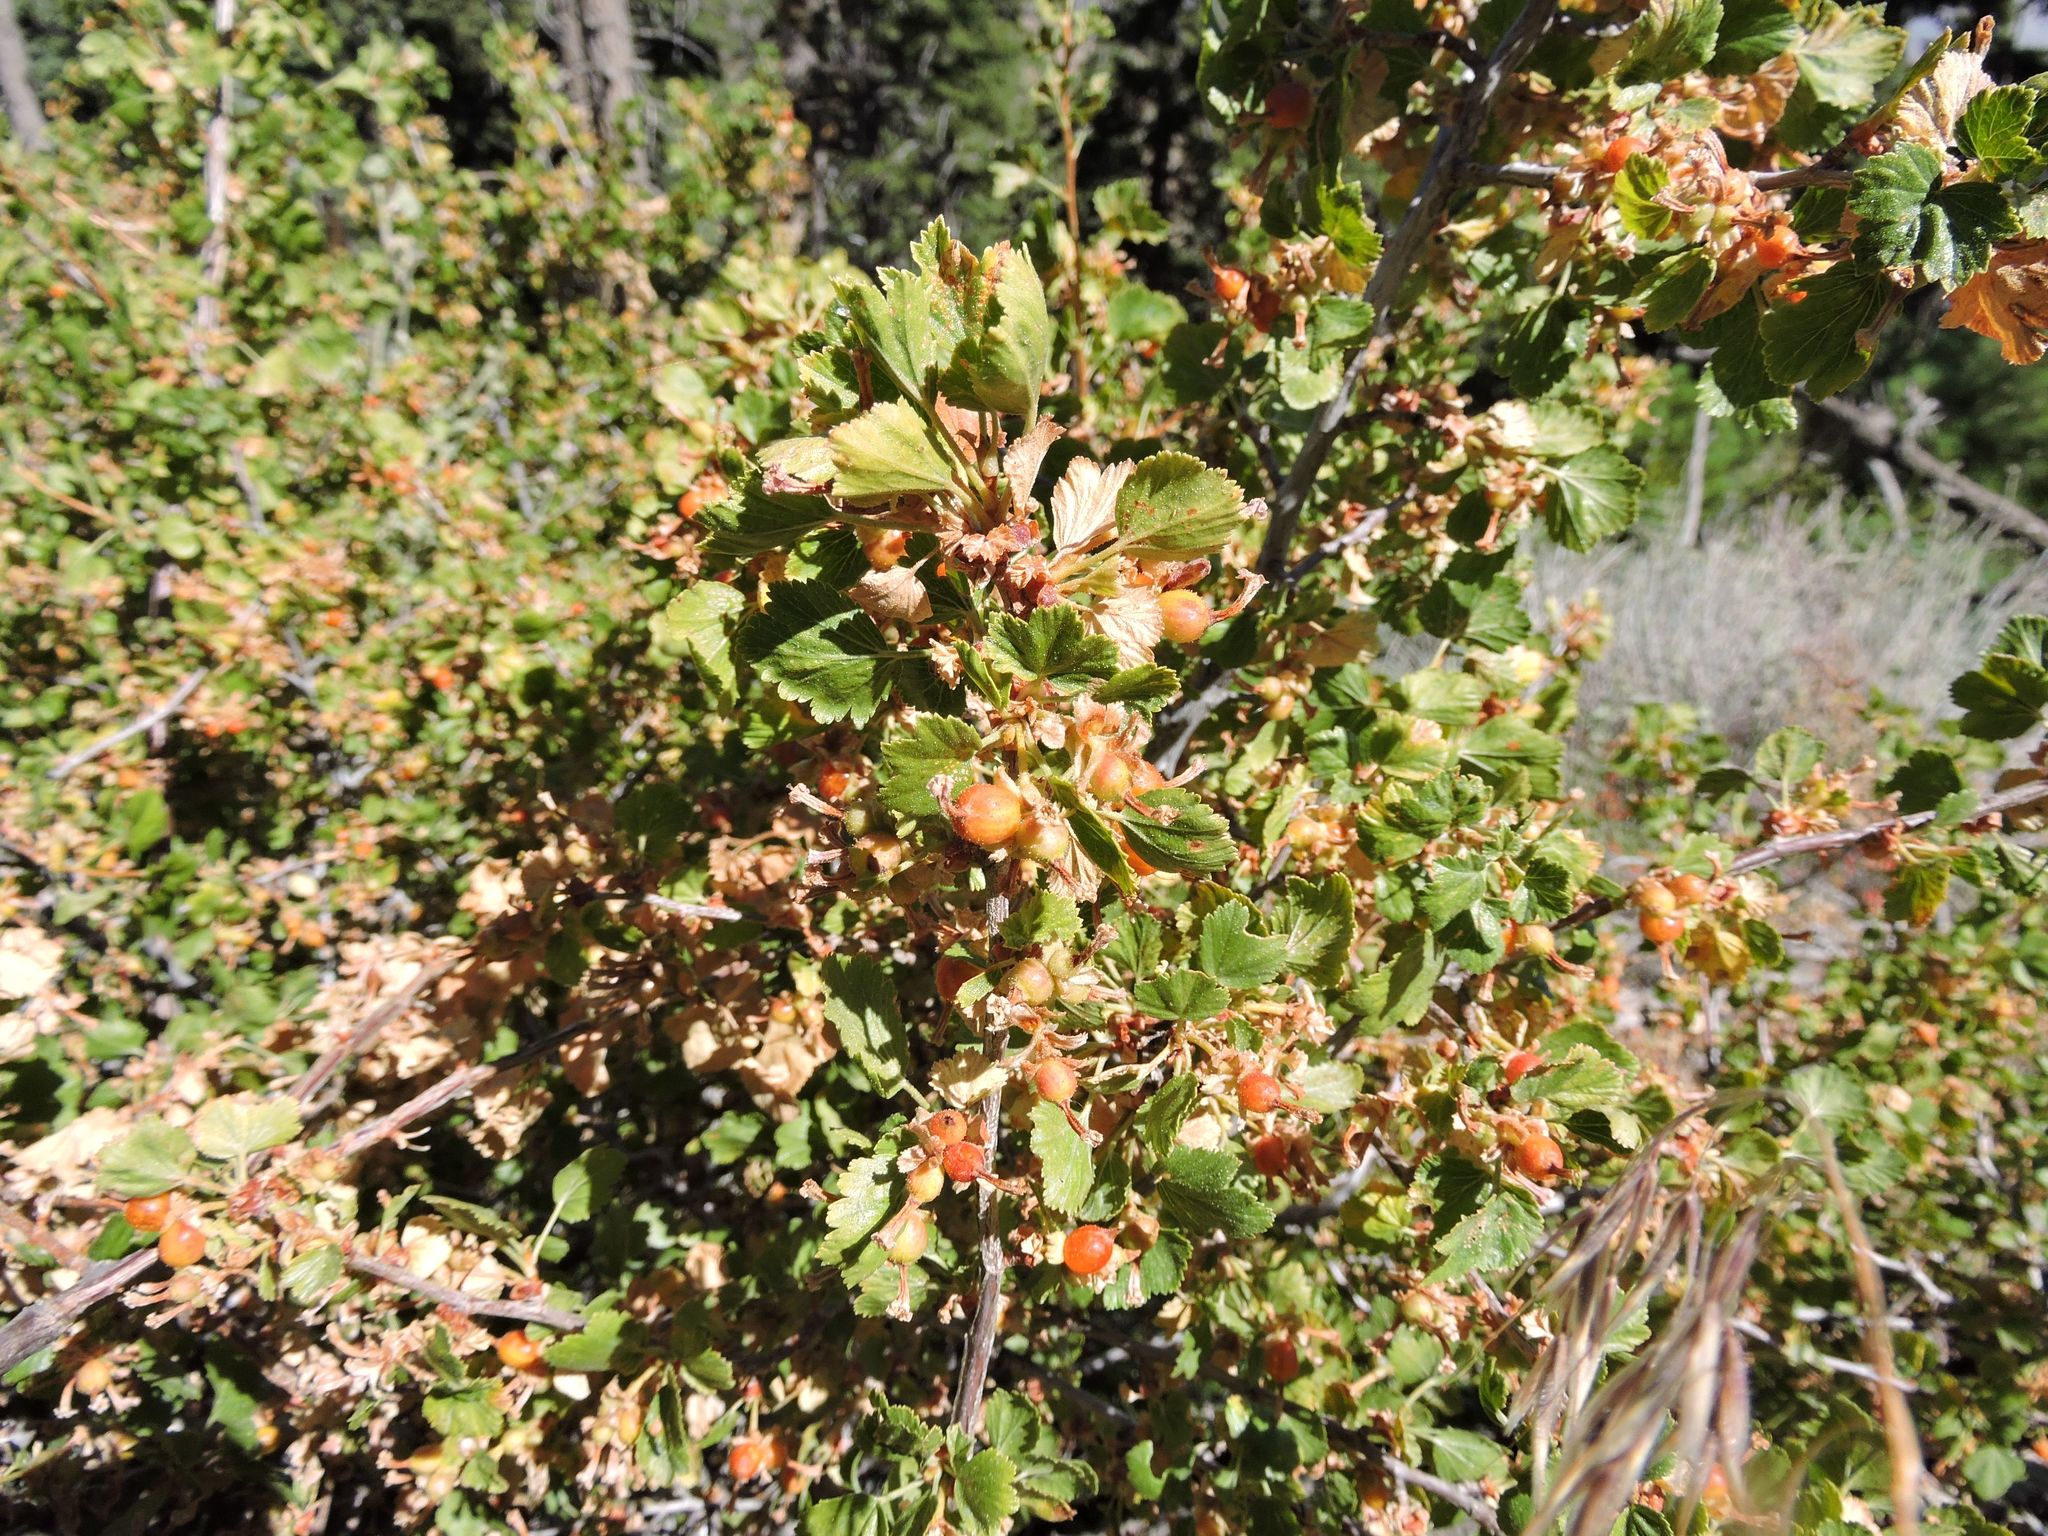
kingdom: Plantae
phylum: Tracheophyta
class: Magnoliopsida
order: Saxifragales
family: Grossulariaceae
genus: Ribes
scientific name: Ribes cereum
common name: Wax currant
